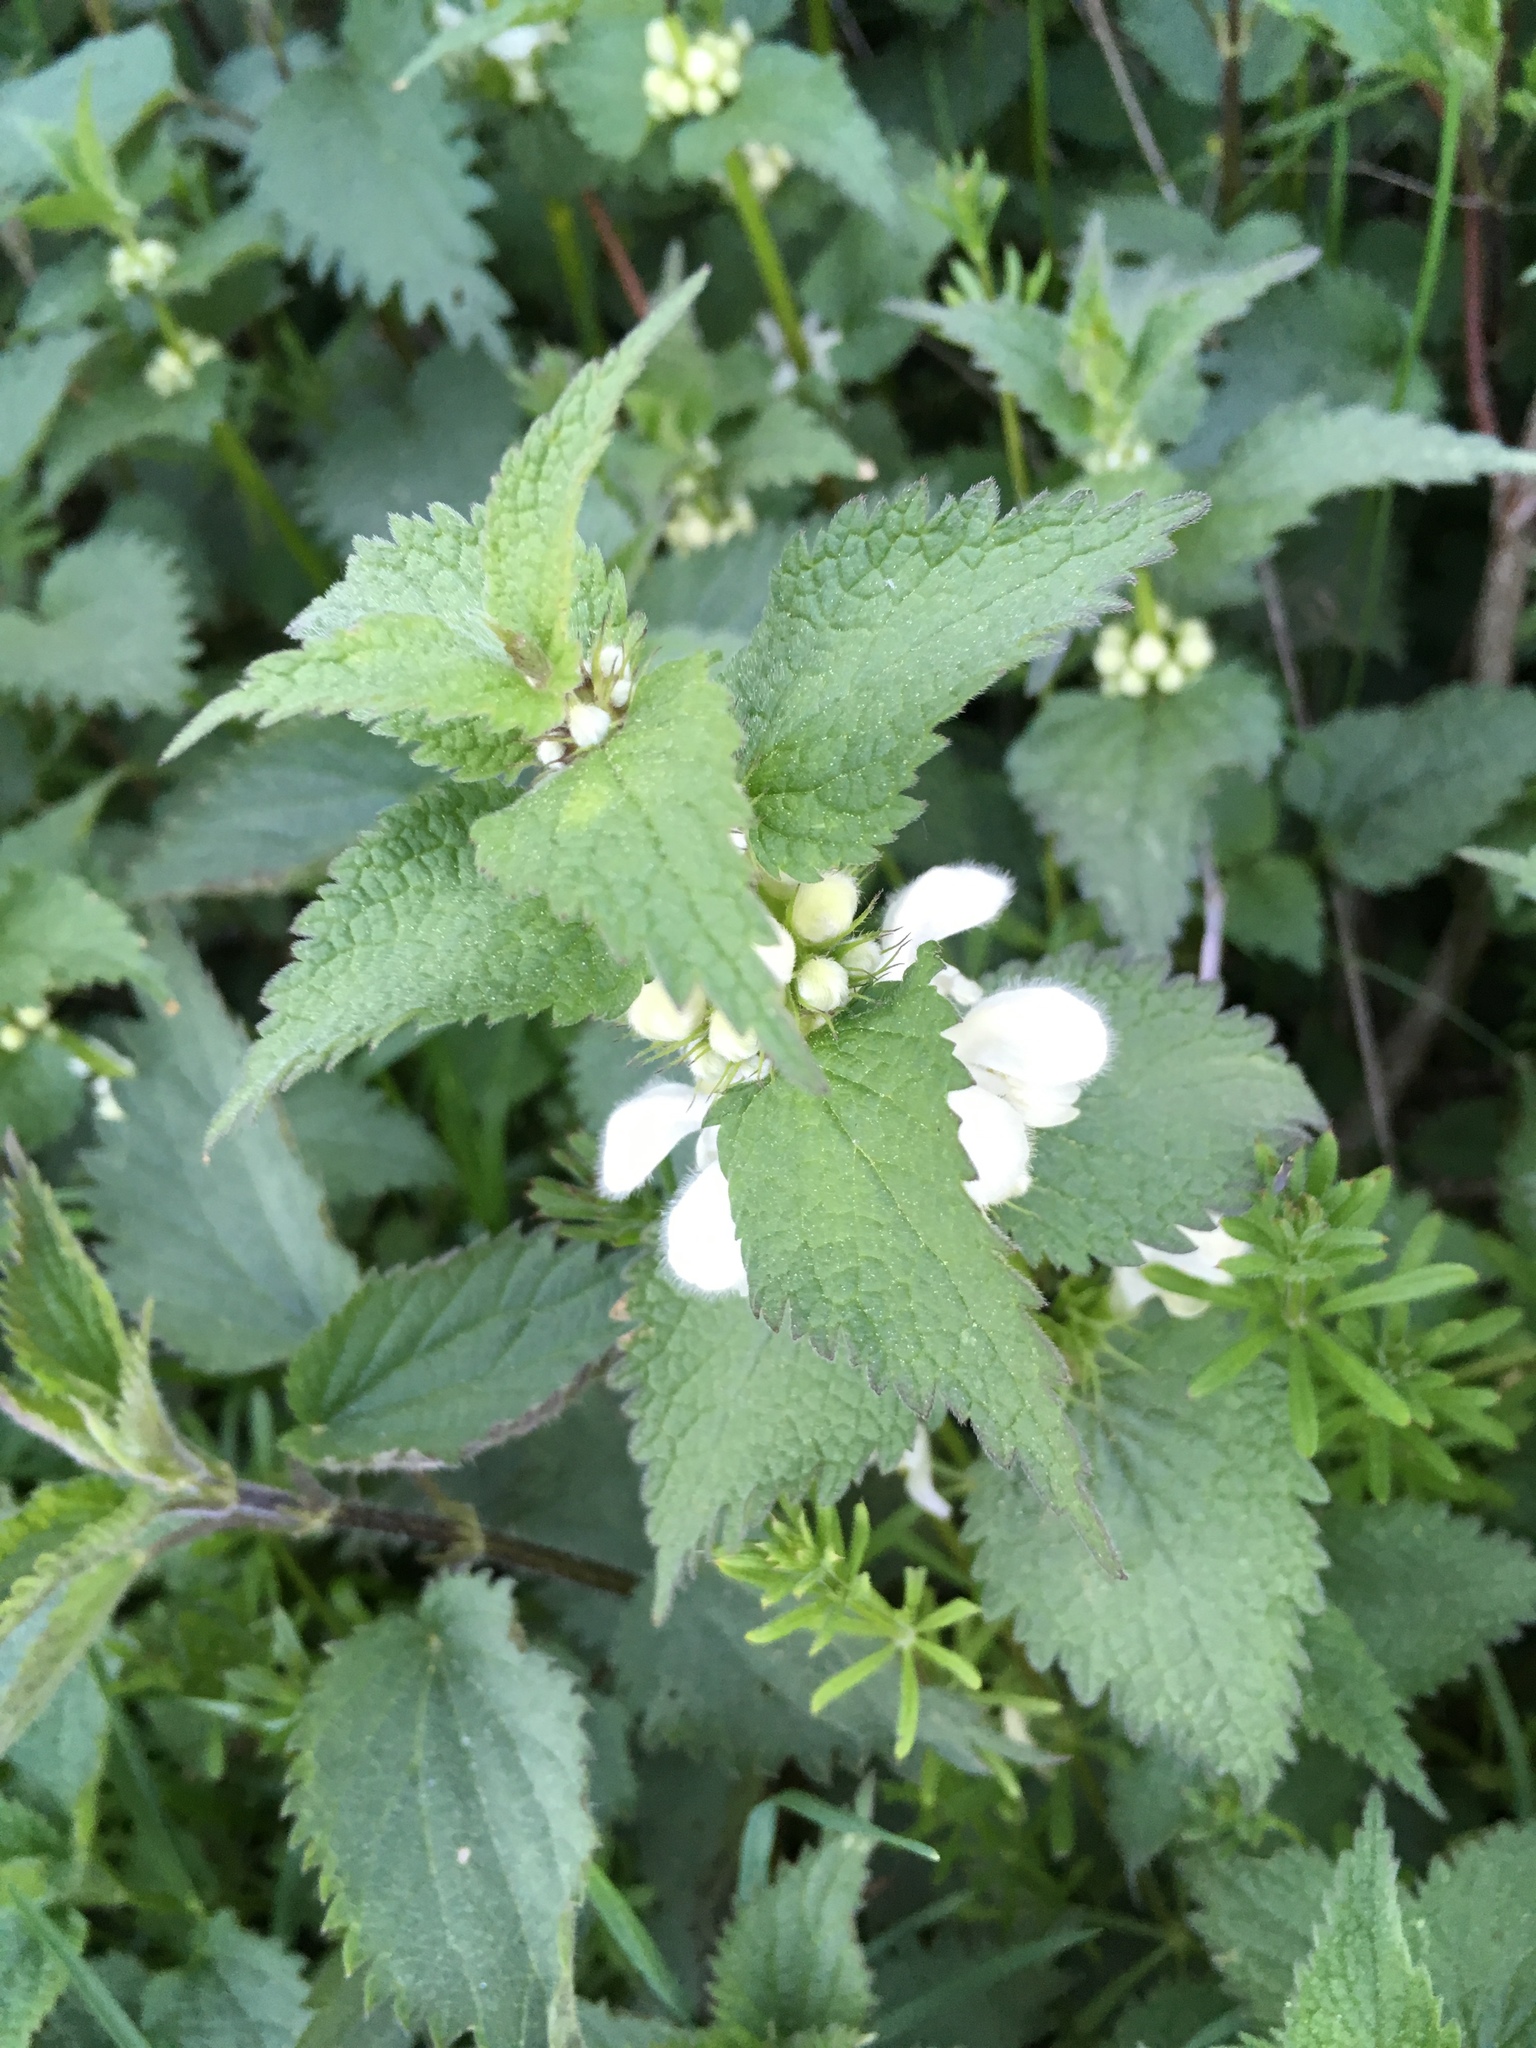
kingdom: Plantae
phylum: Tracheophyta
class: Magnoliopsida
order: Lamiales
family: Lamiaceae
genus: Lamium
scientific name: Lamium album
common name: White dead-nettle
